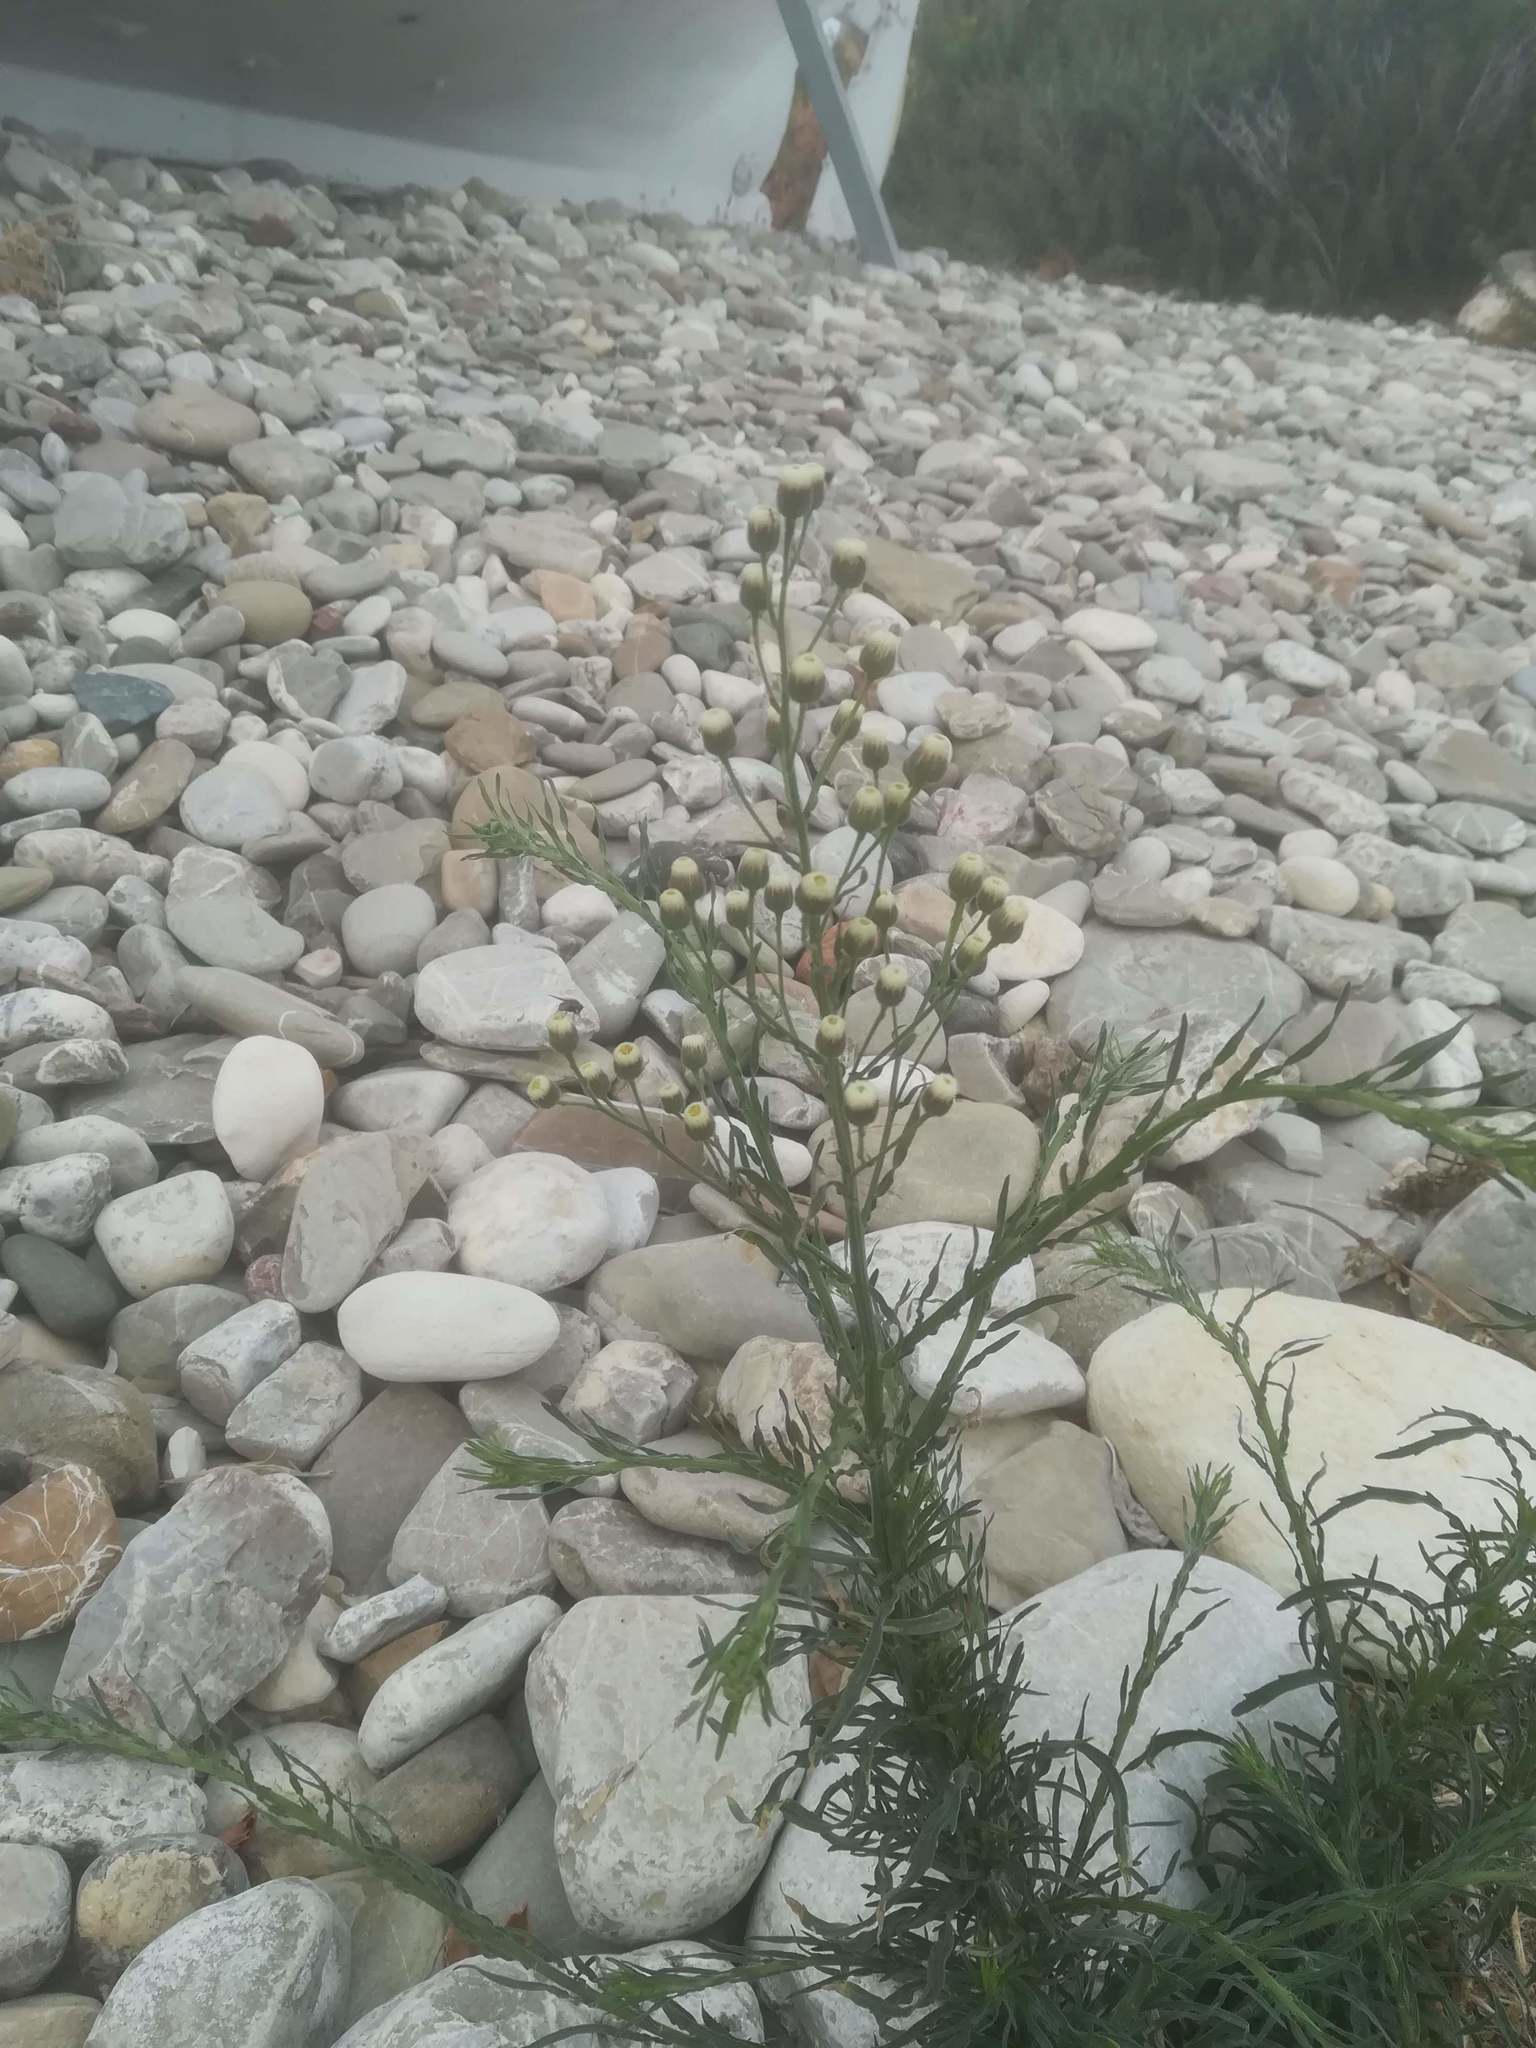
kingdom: Plantae
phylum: Tracheophyta
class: Magnoliopsida
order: Asterales
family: Asteraceae
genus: Erigeron
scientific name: Erigeron bonariensis
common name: Argentine fleabane
